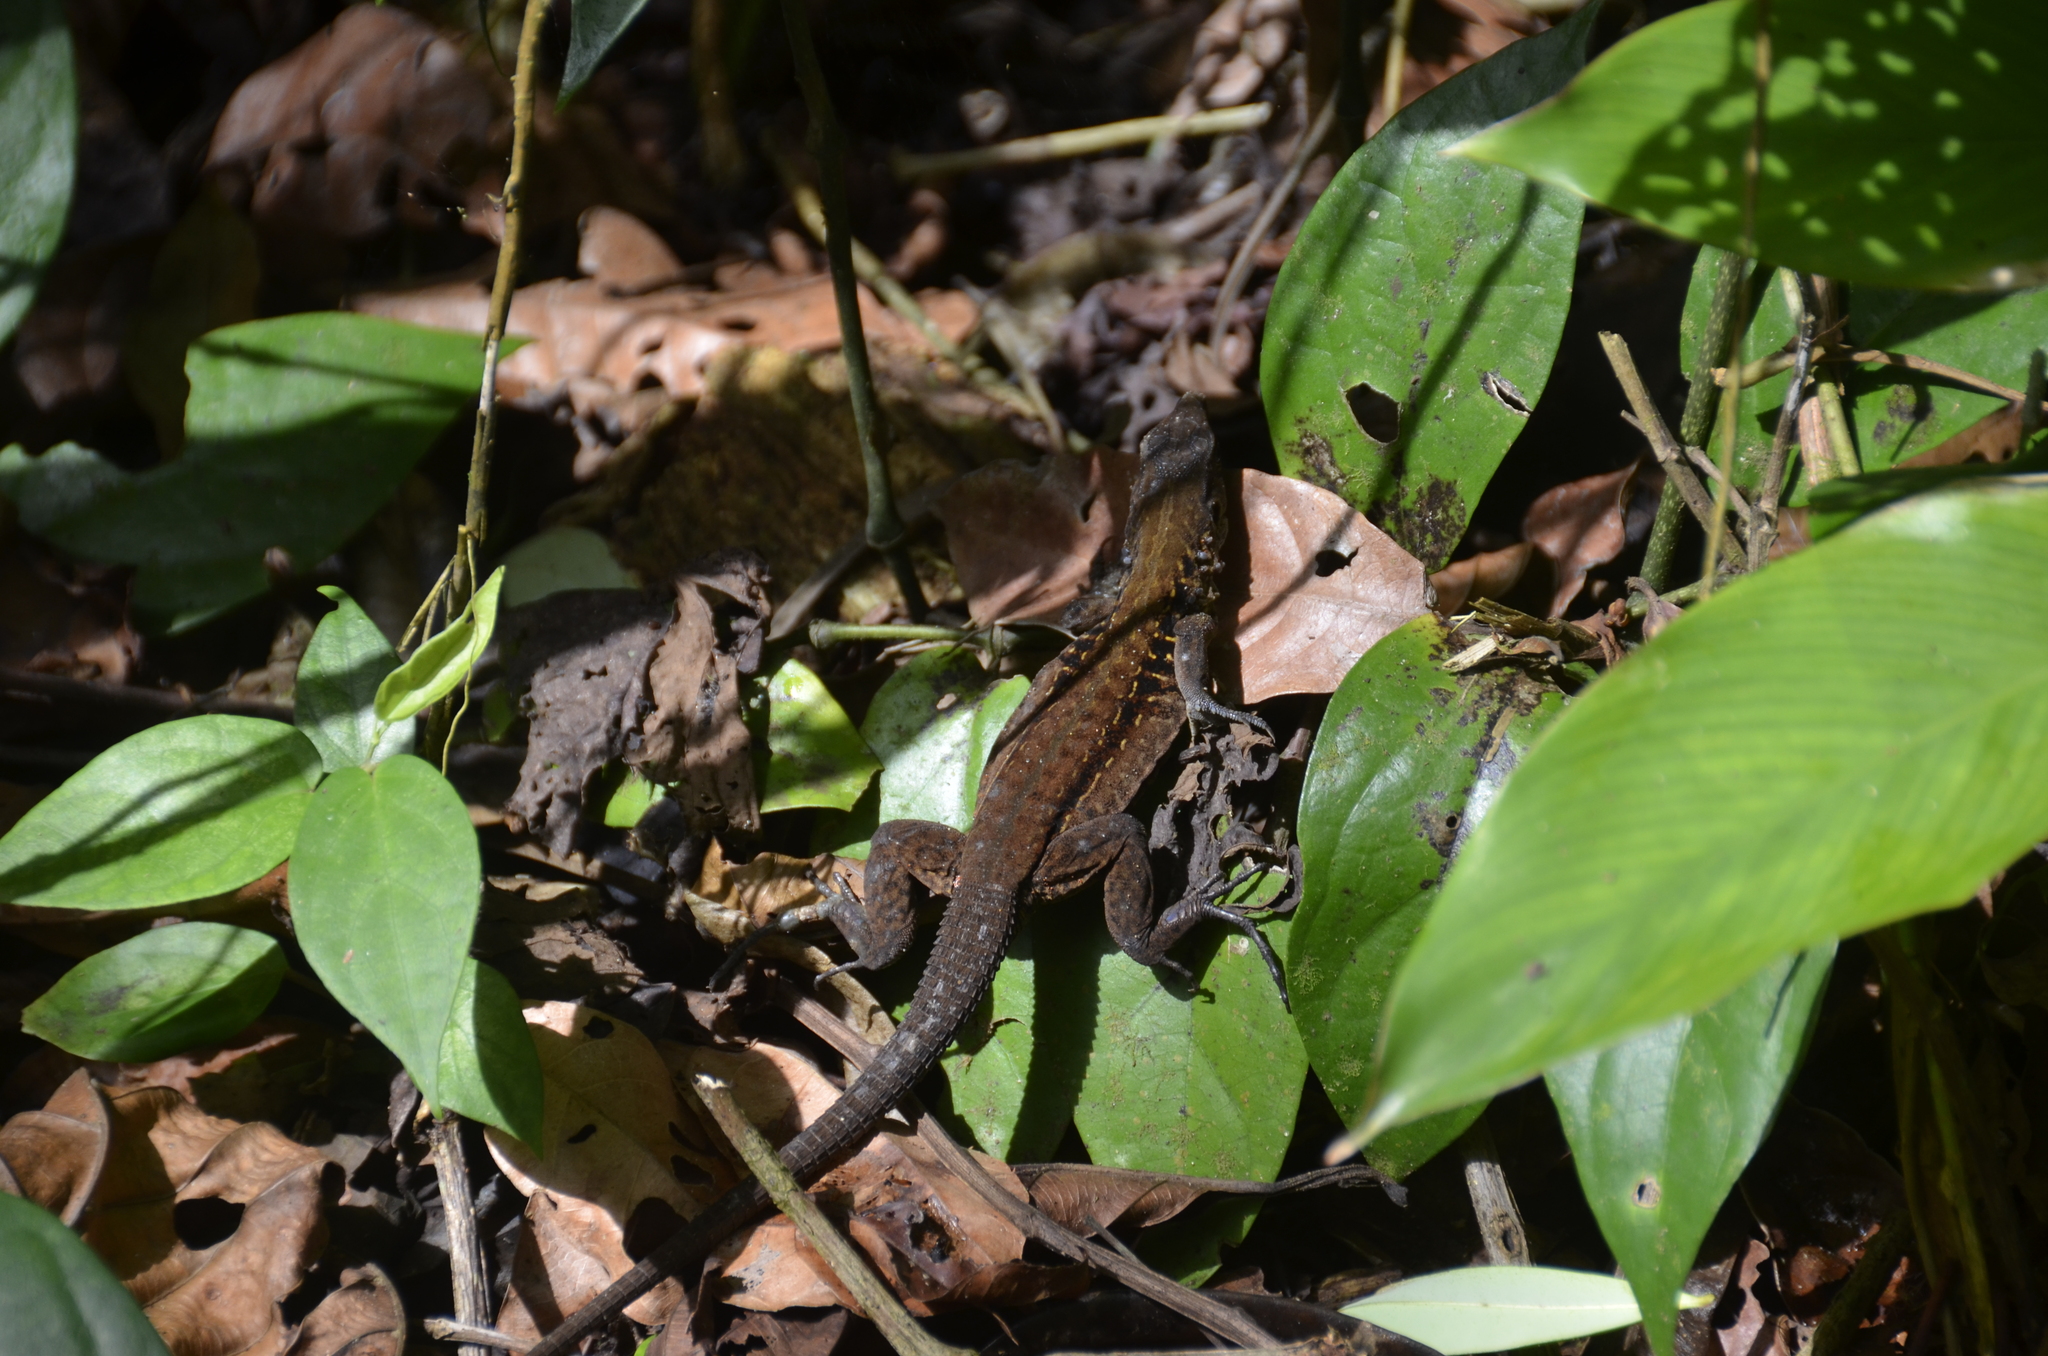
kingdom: Animalia
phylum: Chordata
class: Squamata
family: Teiidae
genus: Holcosus
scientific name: Holcosus festivus
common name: Middle american ameiva
